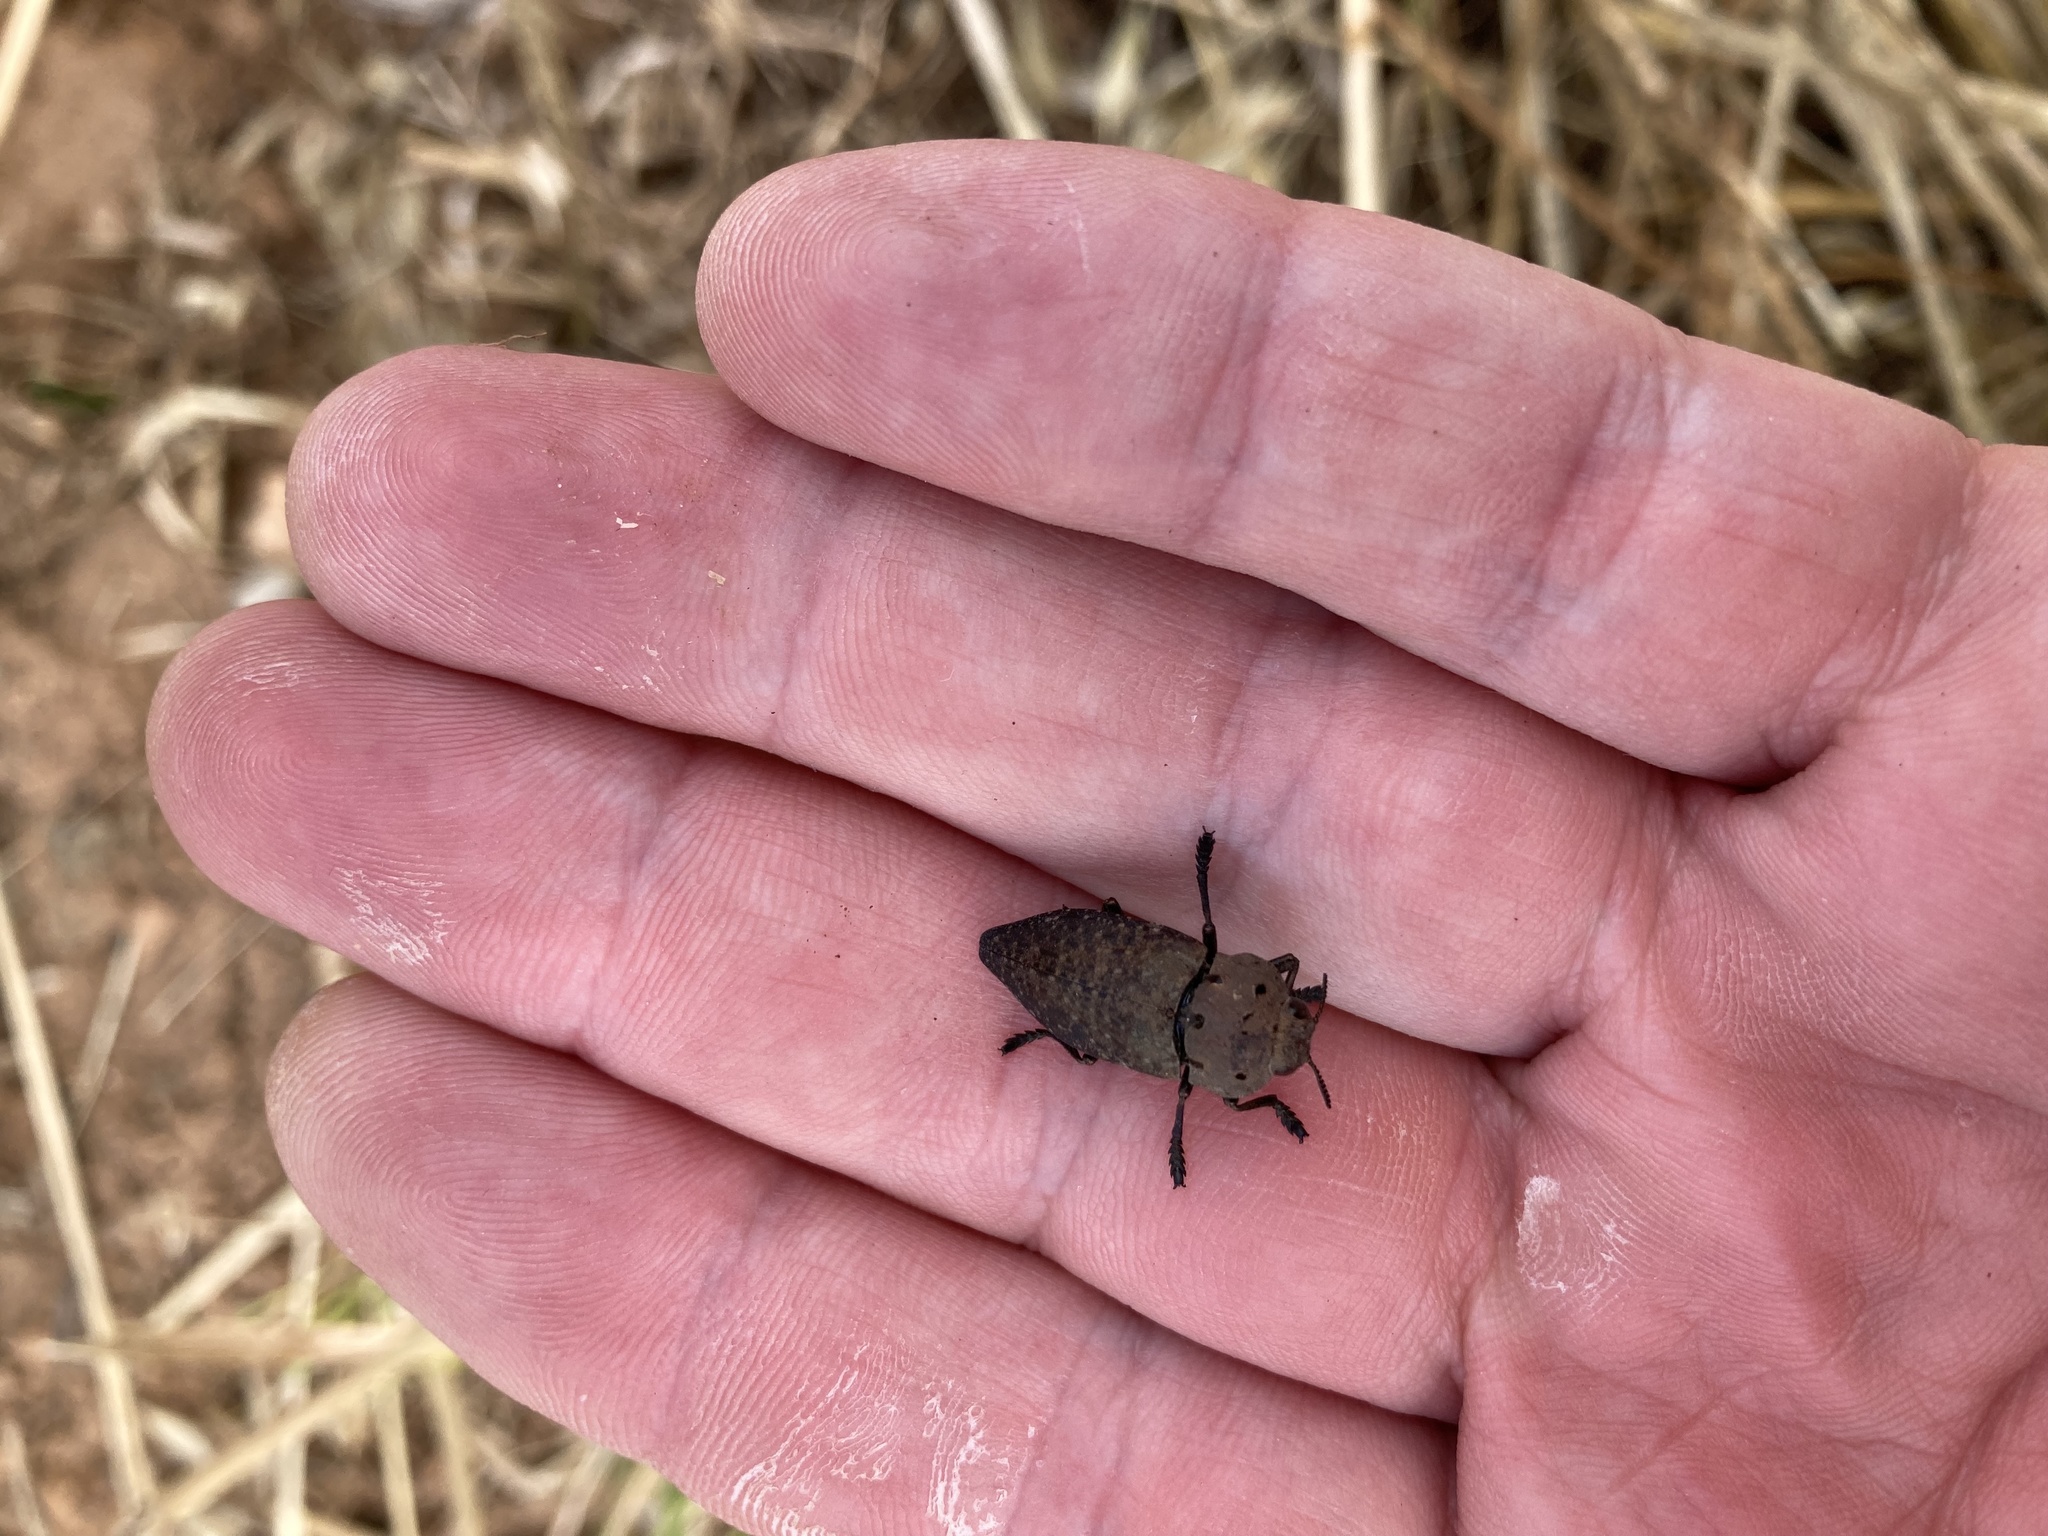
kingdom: Animalia
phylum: Arthropoda
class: Insecta
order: Coleoptera
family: Buprestidae
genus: Capnodis
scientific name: Capnodis tenebricosa
